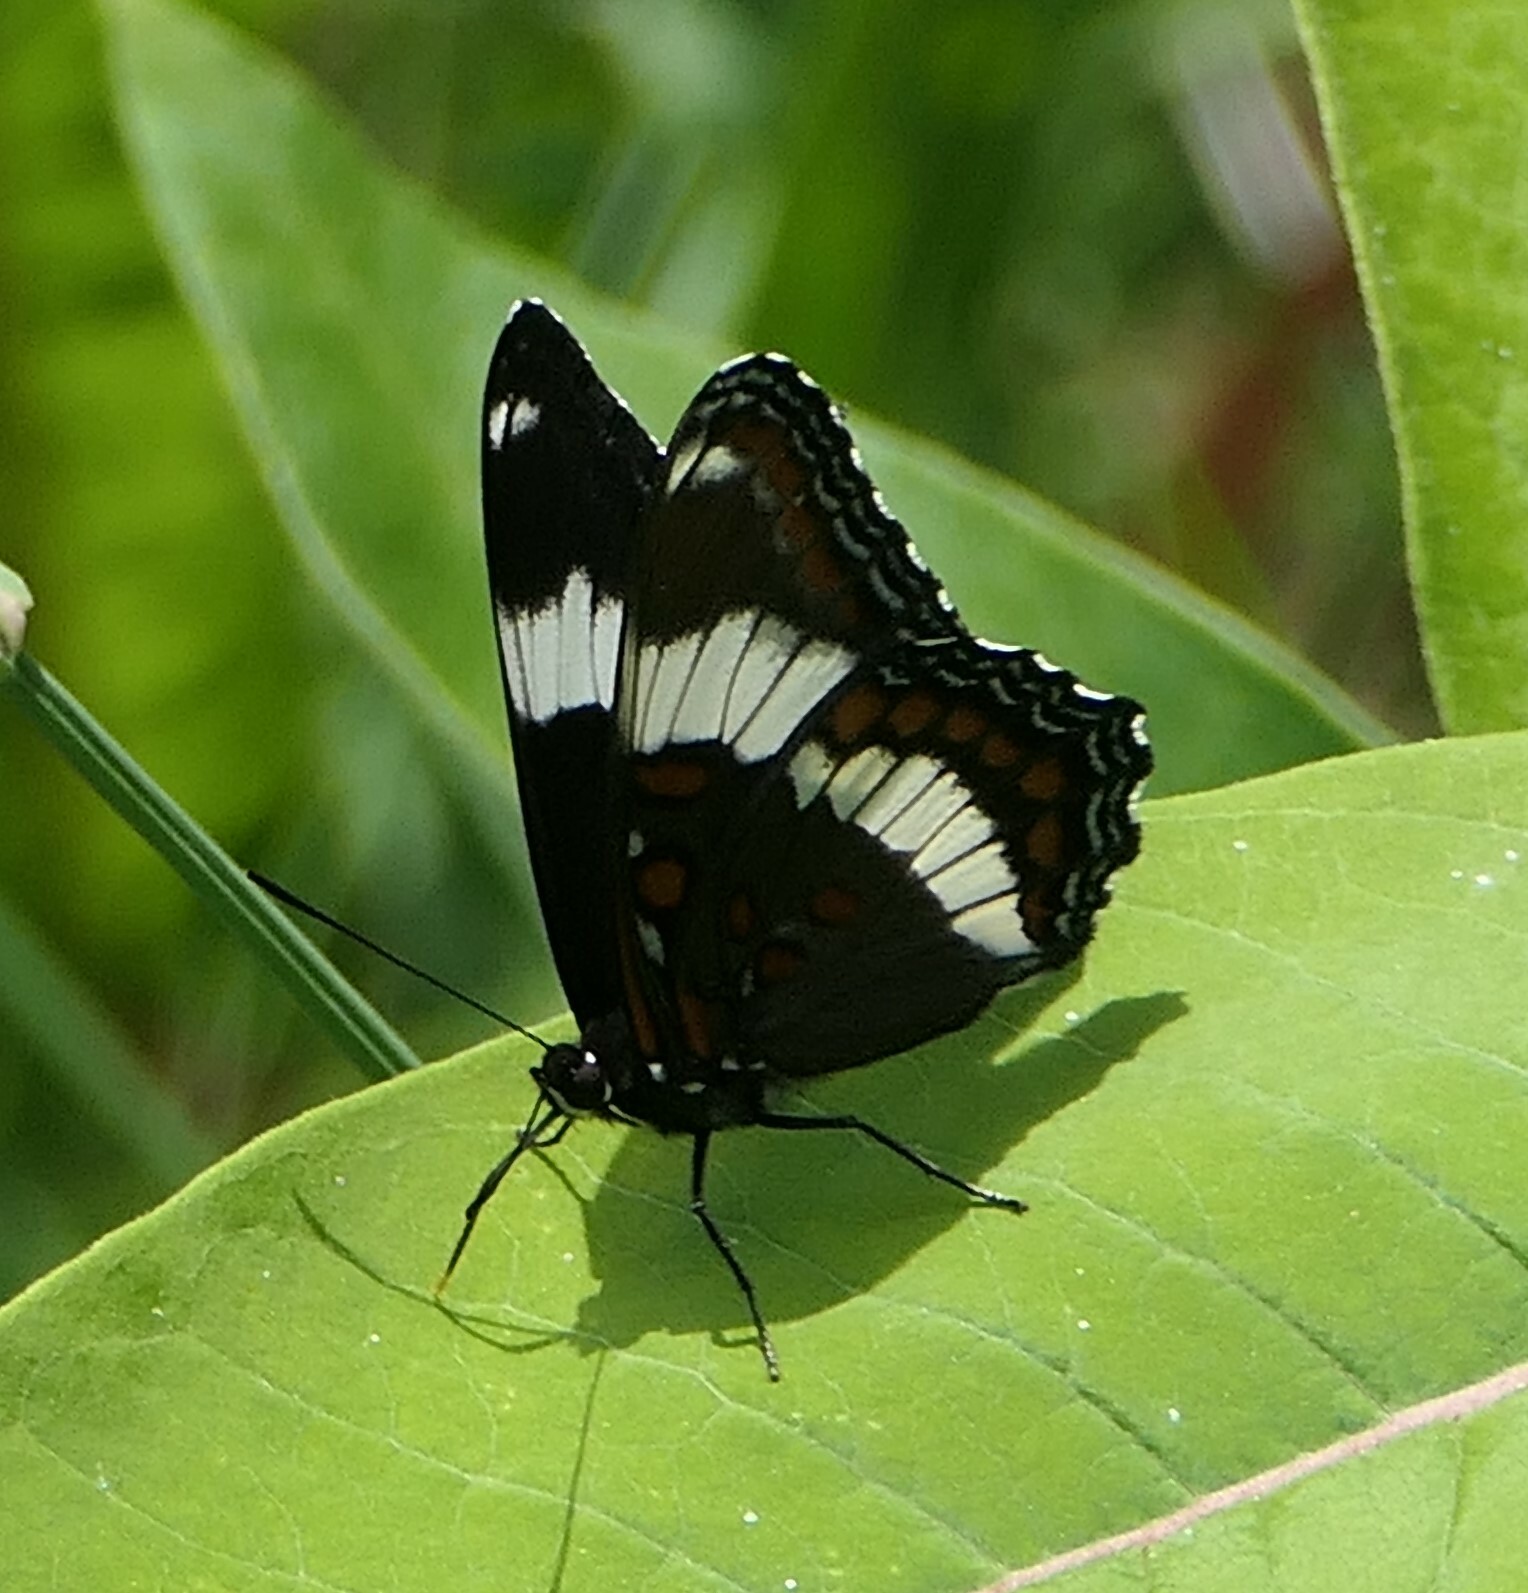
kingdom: Animalia
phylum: Arthropoda
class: Insecta
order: Lepidoptera
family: Nymphalidae
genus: Limenitis
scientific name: Limenitis arthemis
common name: Red-spotted admiral
